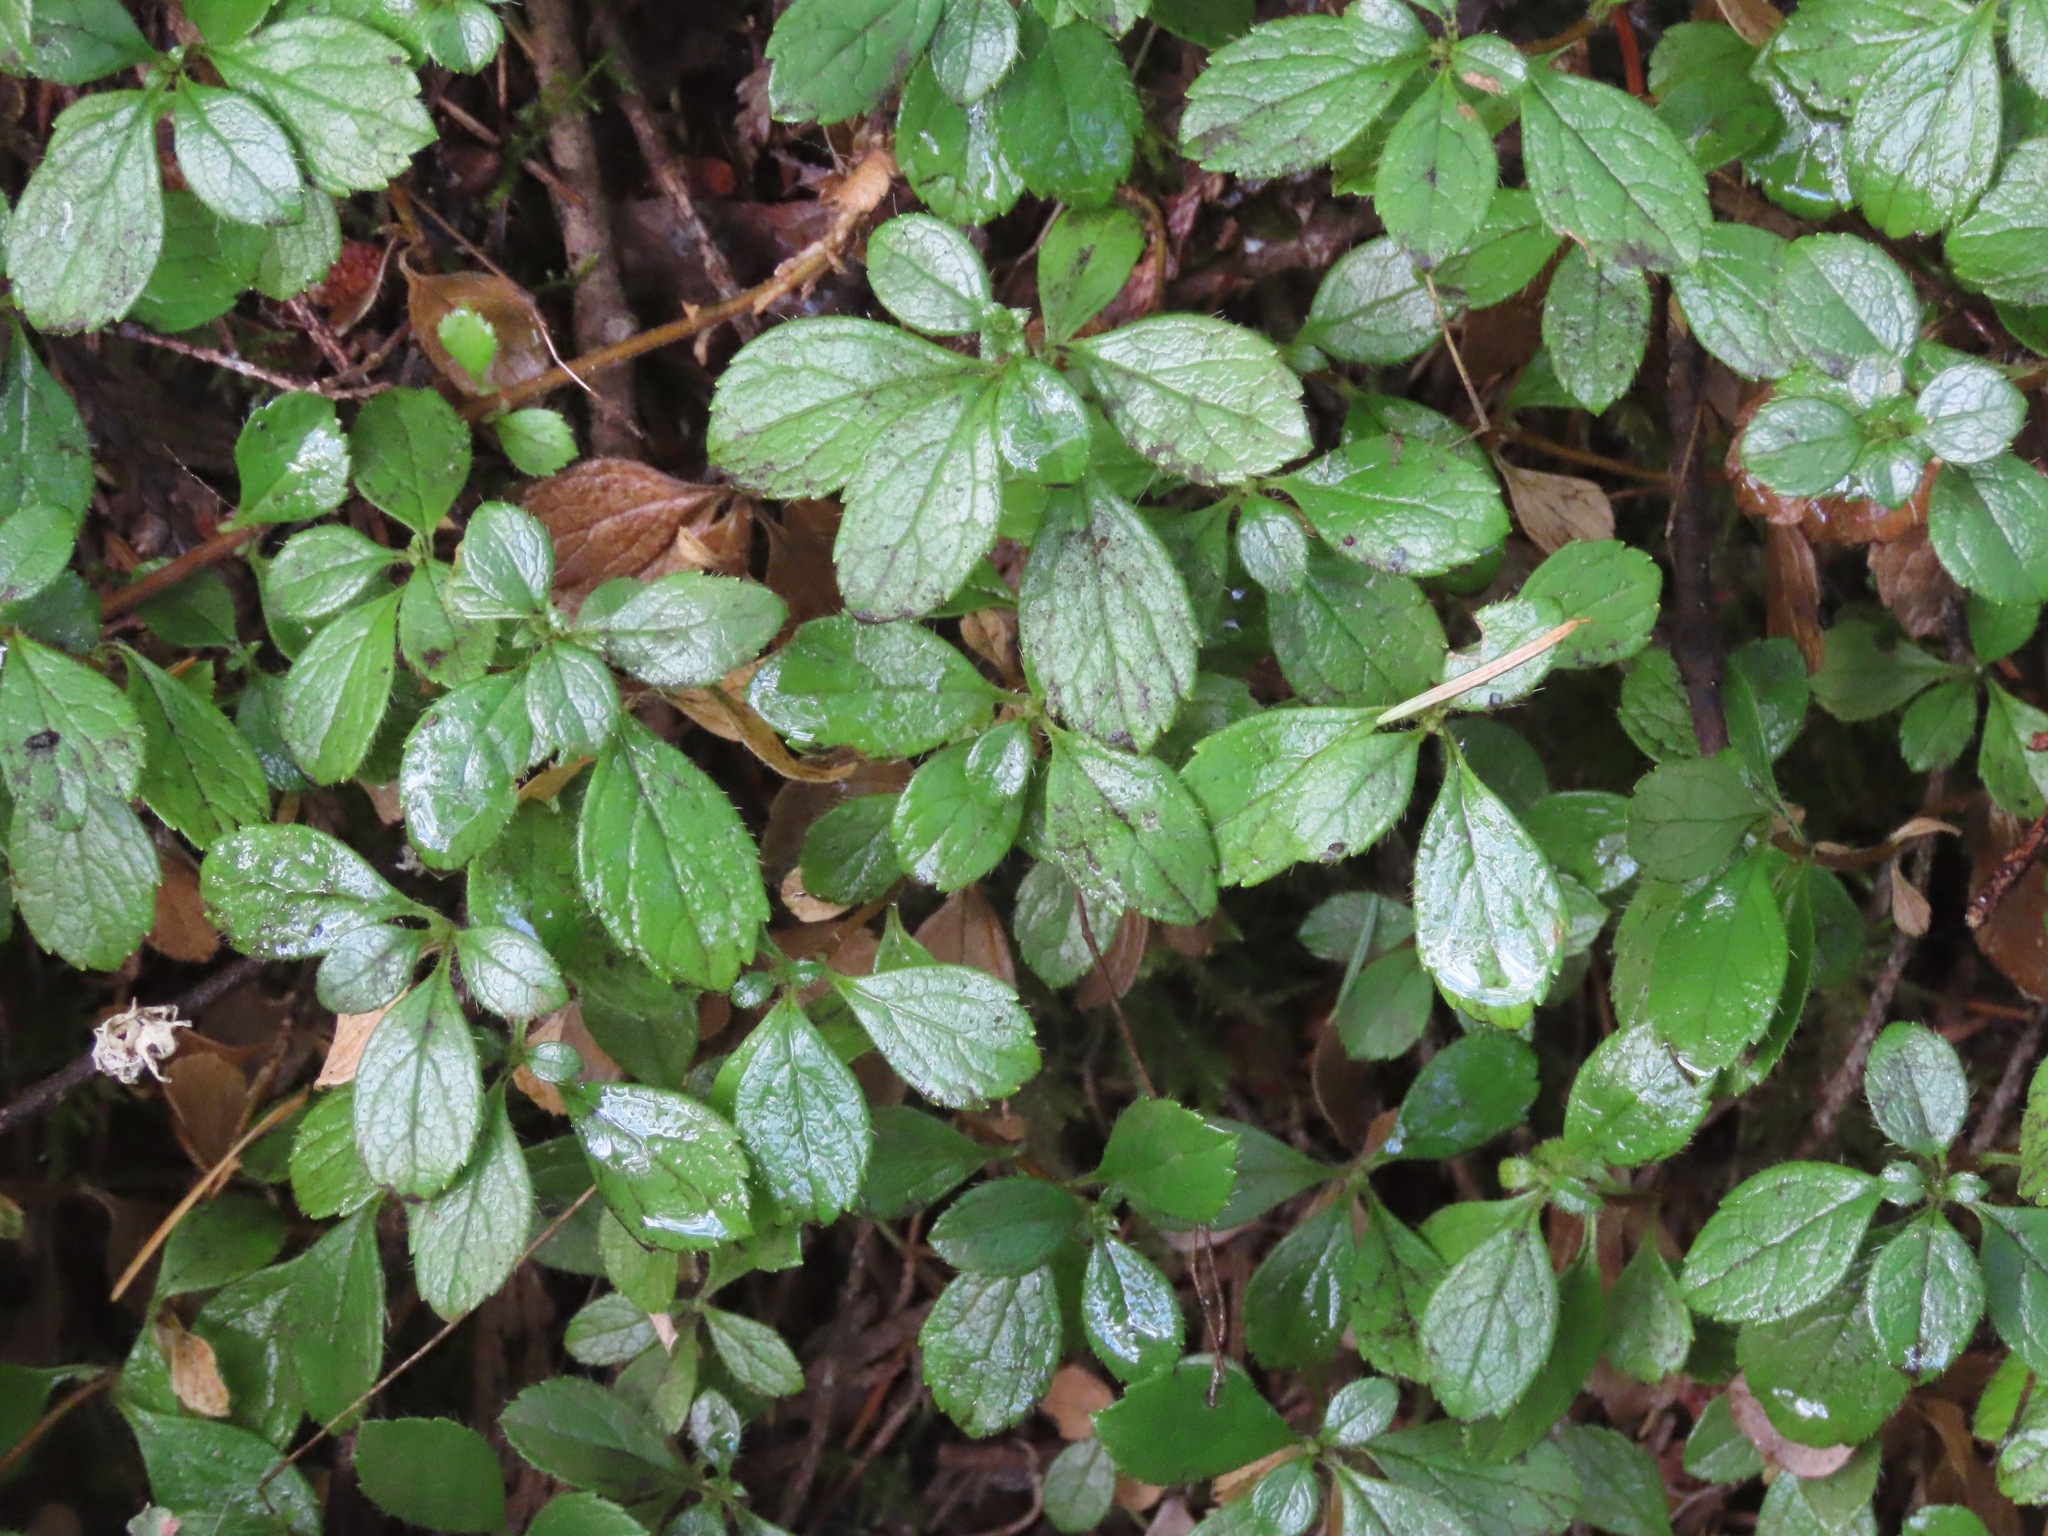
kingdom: Plantae
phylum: Tracheophyta
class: Magnoliopsida
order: Dipsacales
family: Caprifoliaceae
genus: Linnaea
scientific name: Linnaea borealis
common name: Twinflower
